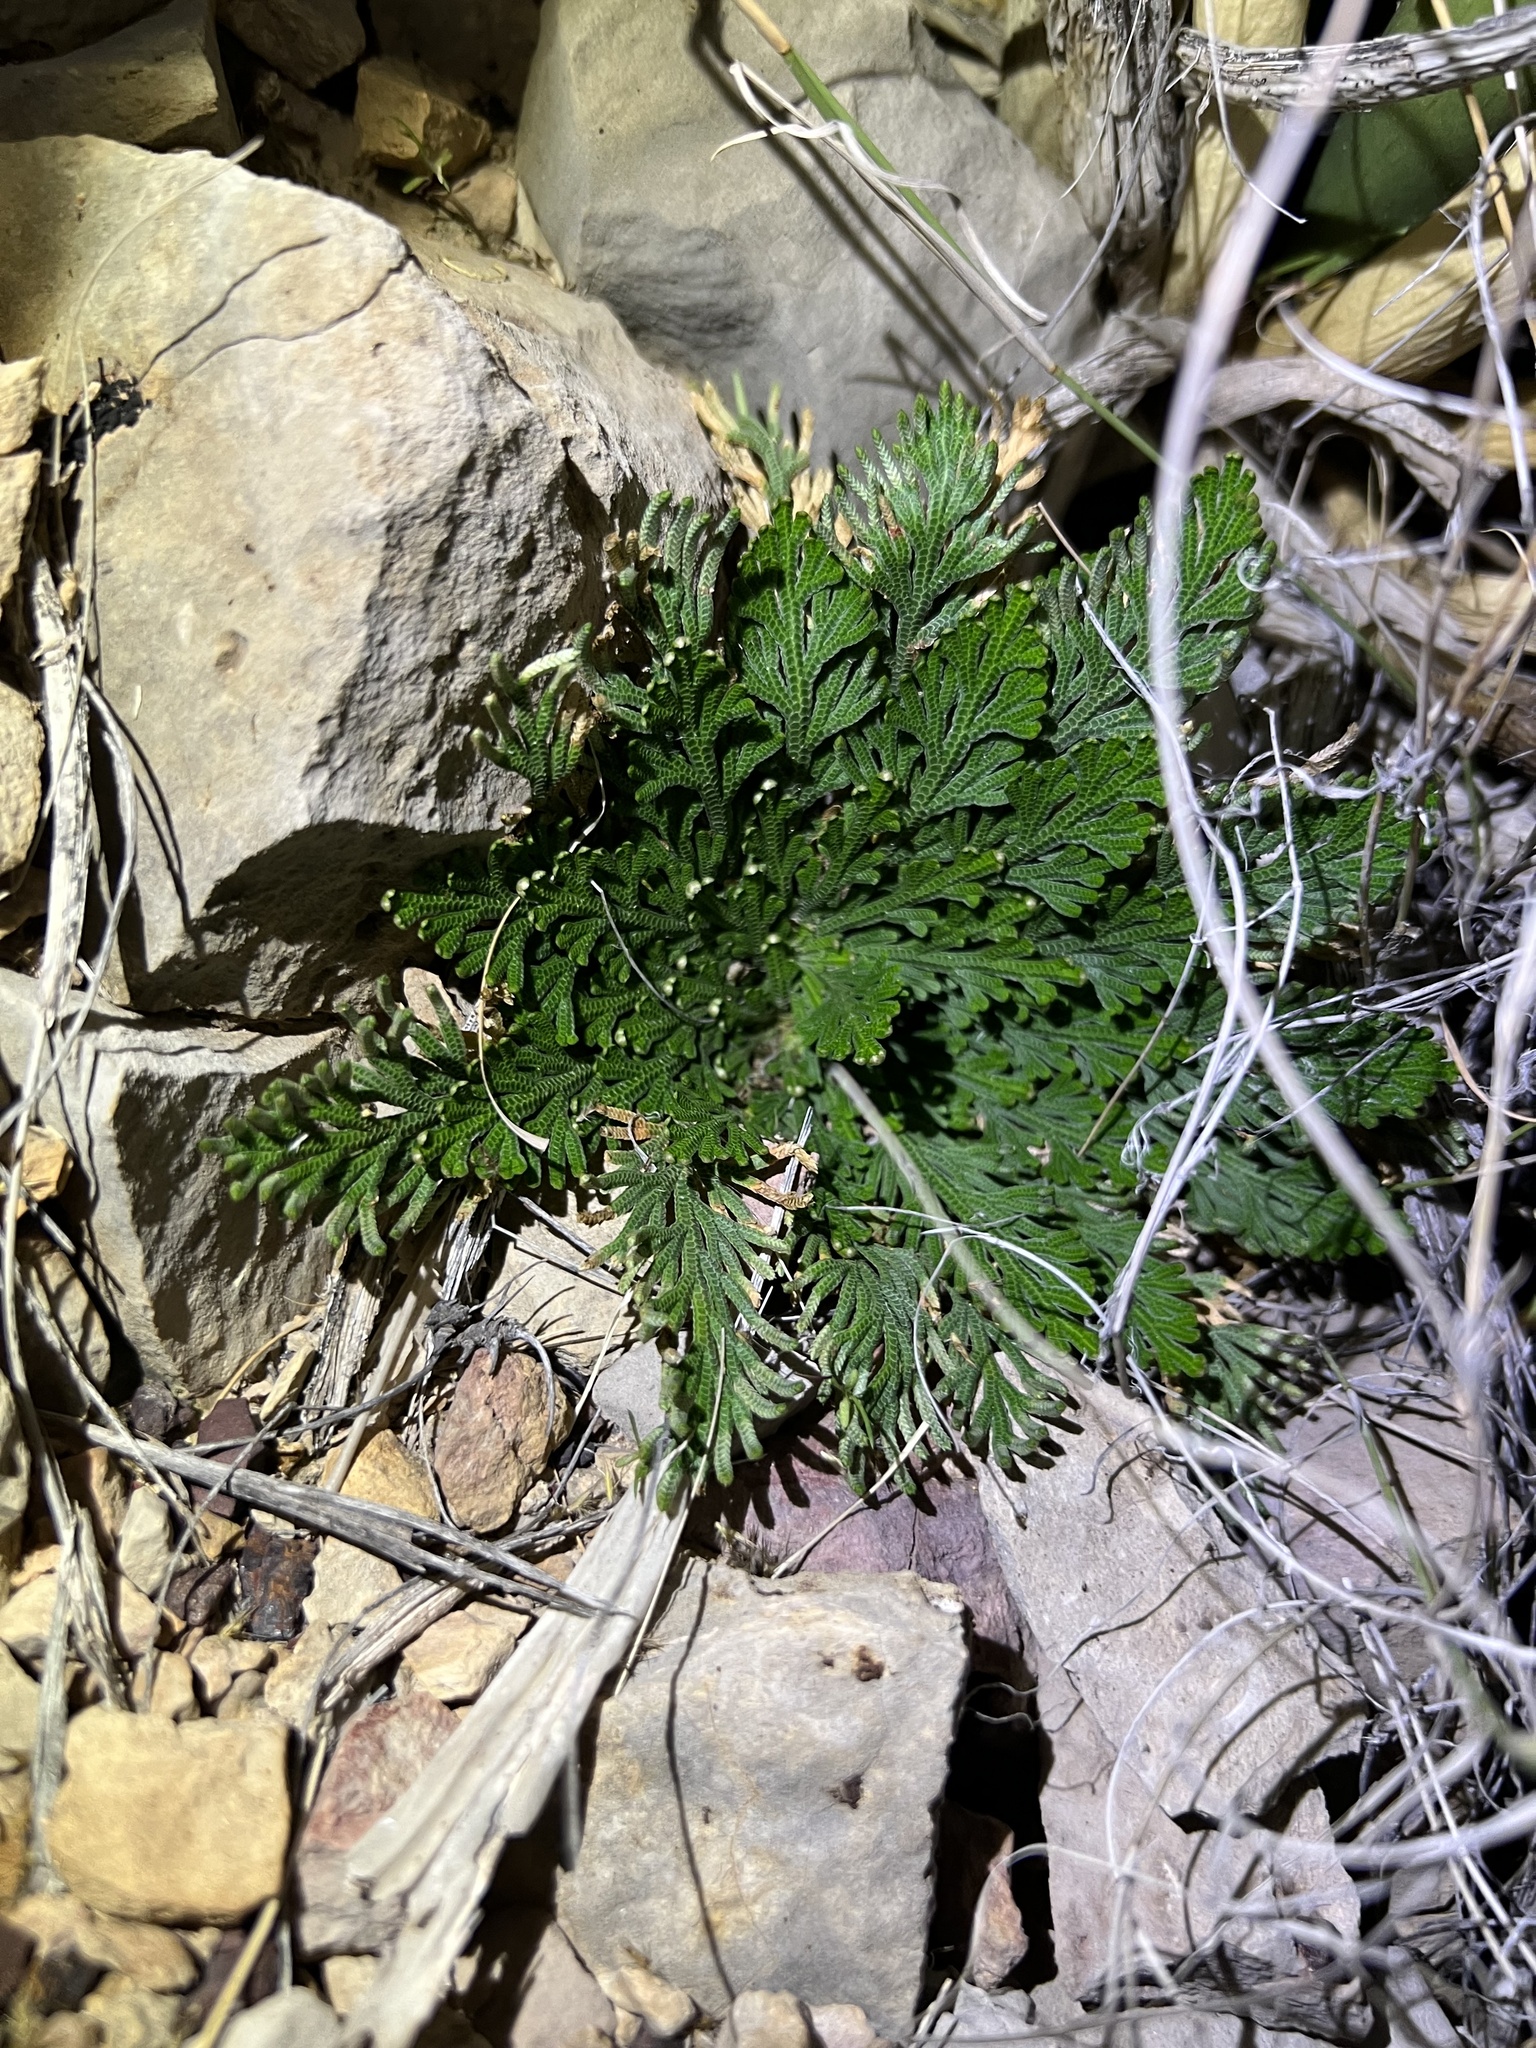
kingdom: Plantae
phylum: Tracheophyta
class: Lycopodiopsida
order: Selaginellales
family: Selaginellaceae
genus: Selaginella
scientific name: Selaginella lepidophylla
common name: Rose-of-jericho
